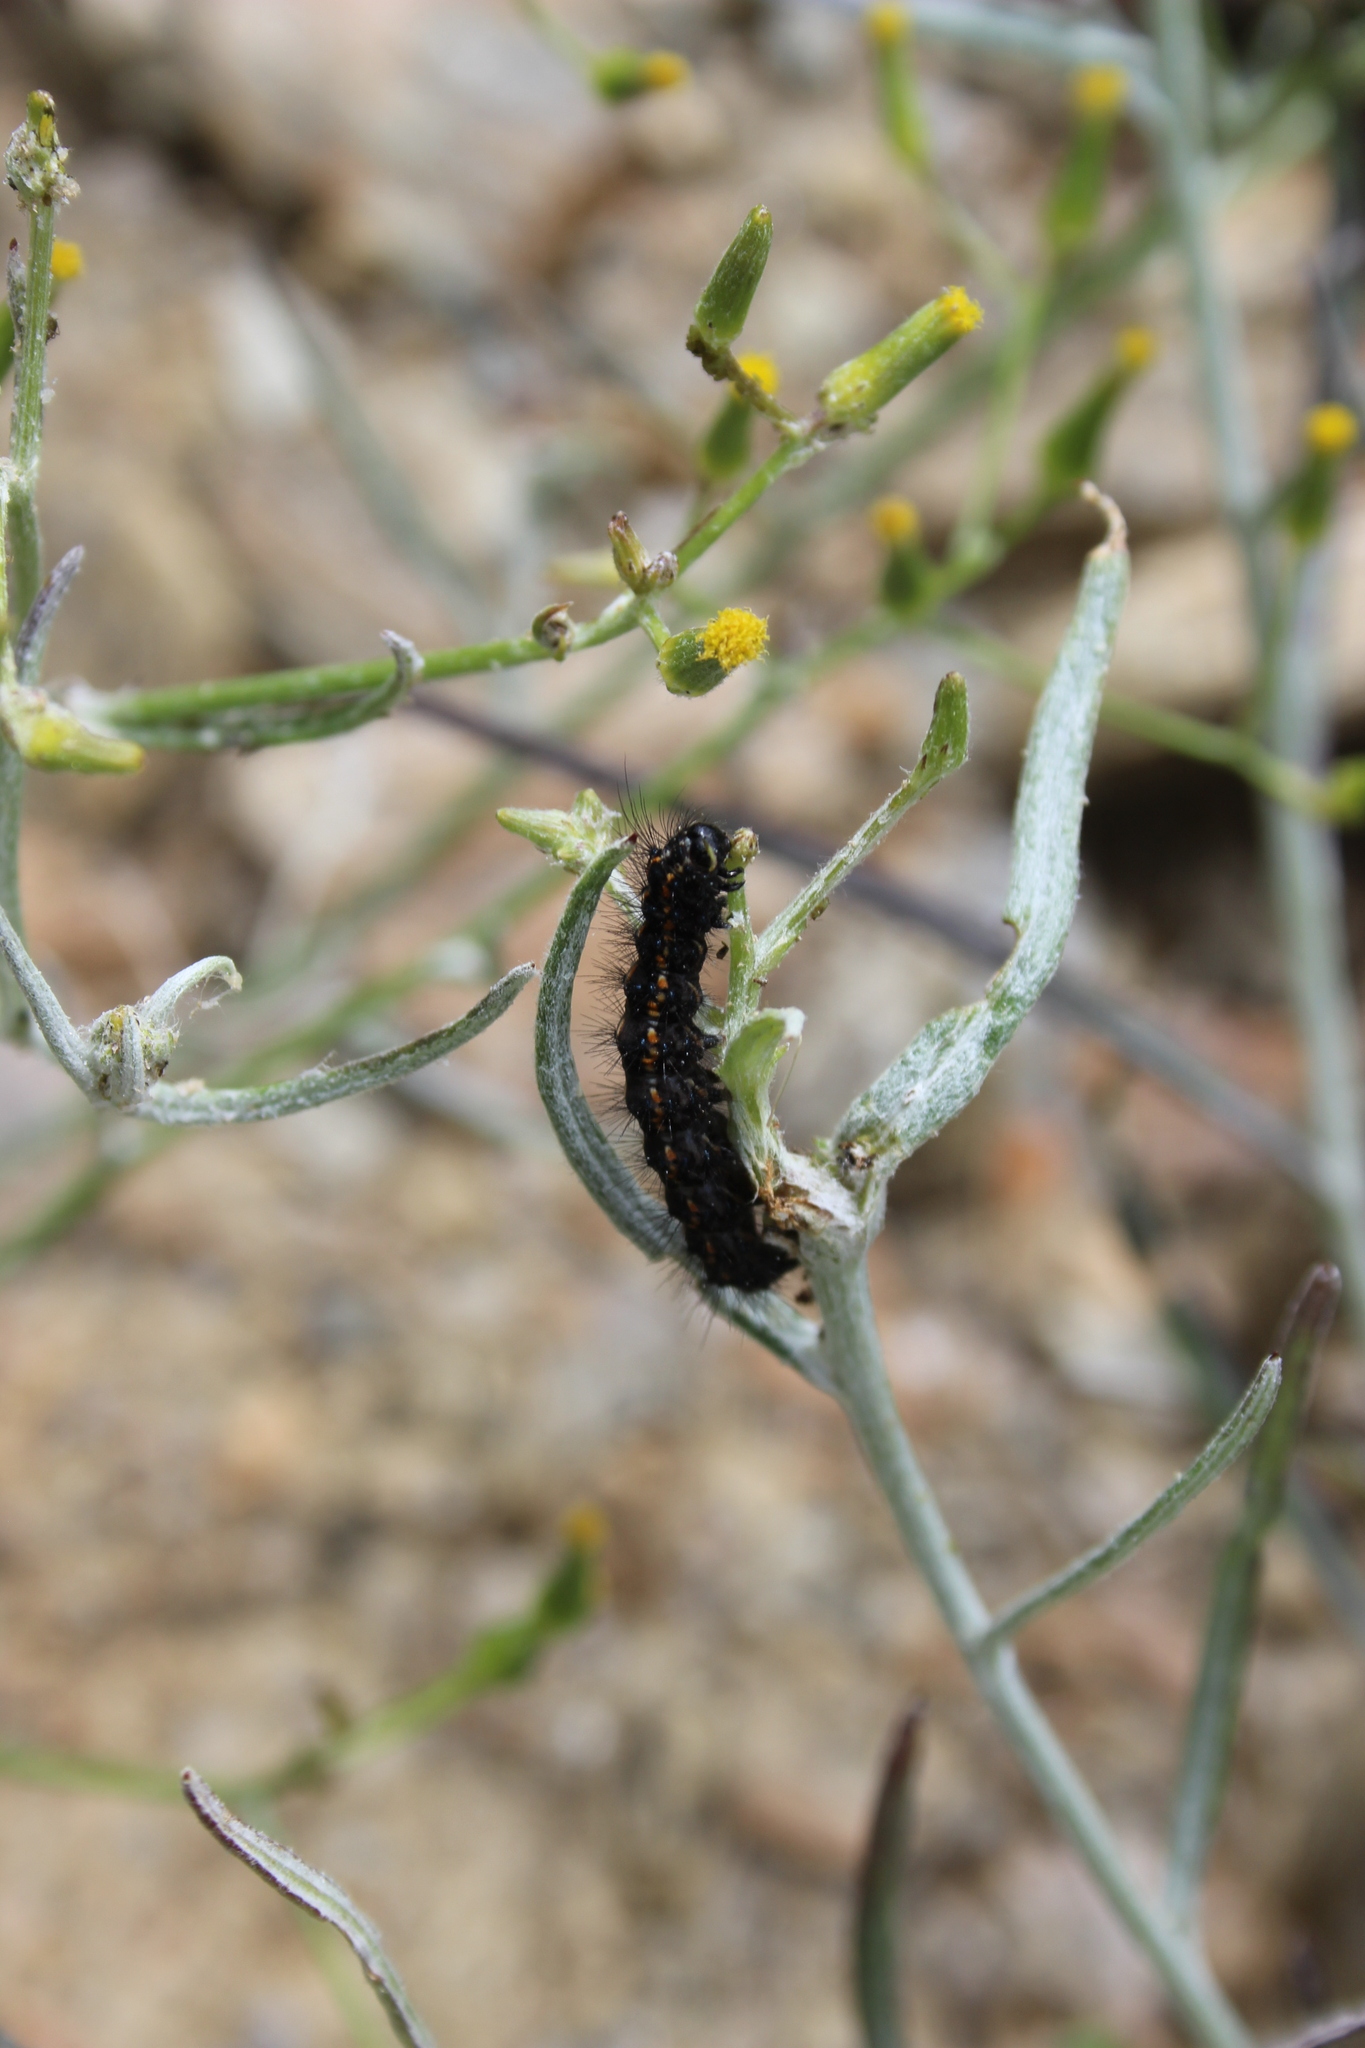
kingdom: Animalia
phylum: Arthropoda
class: Insecta
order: Lepidoptera
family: Erebidae
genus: Nyctemera
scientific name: Nyctemera annulatum
